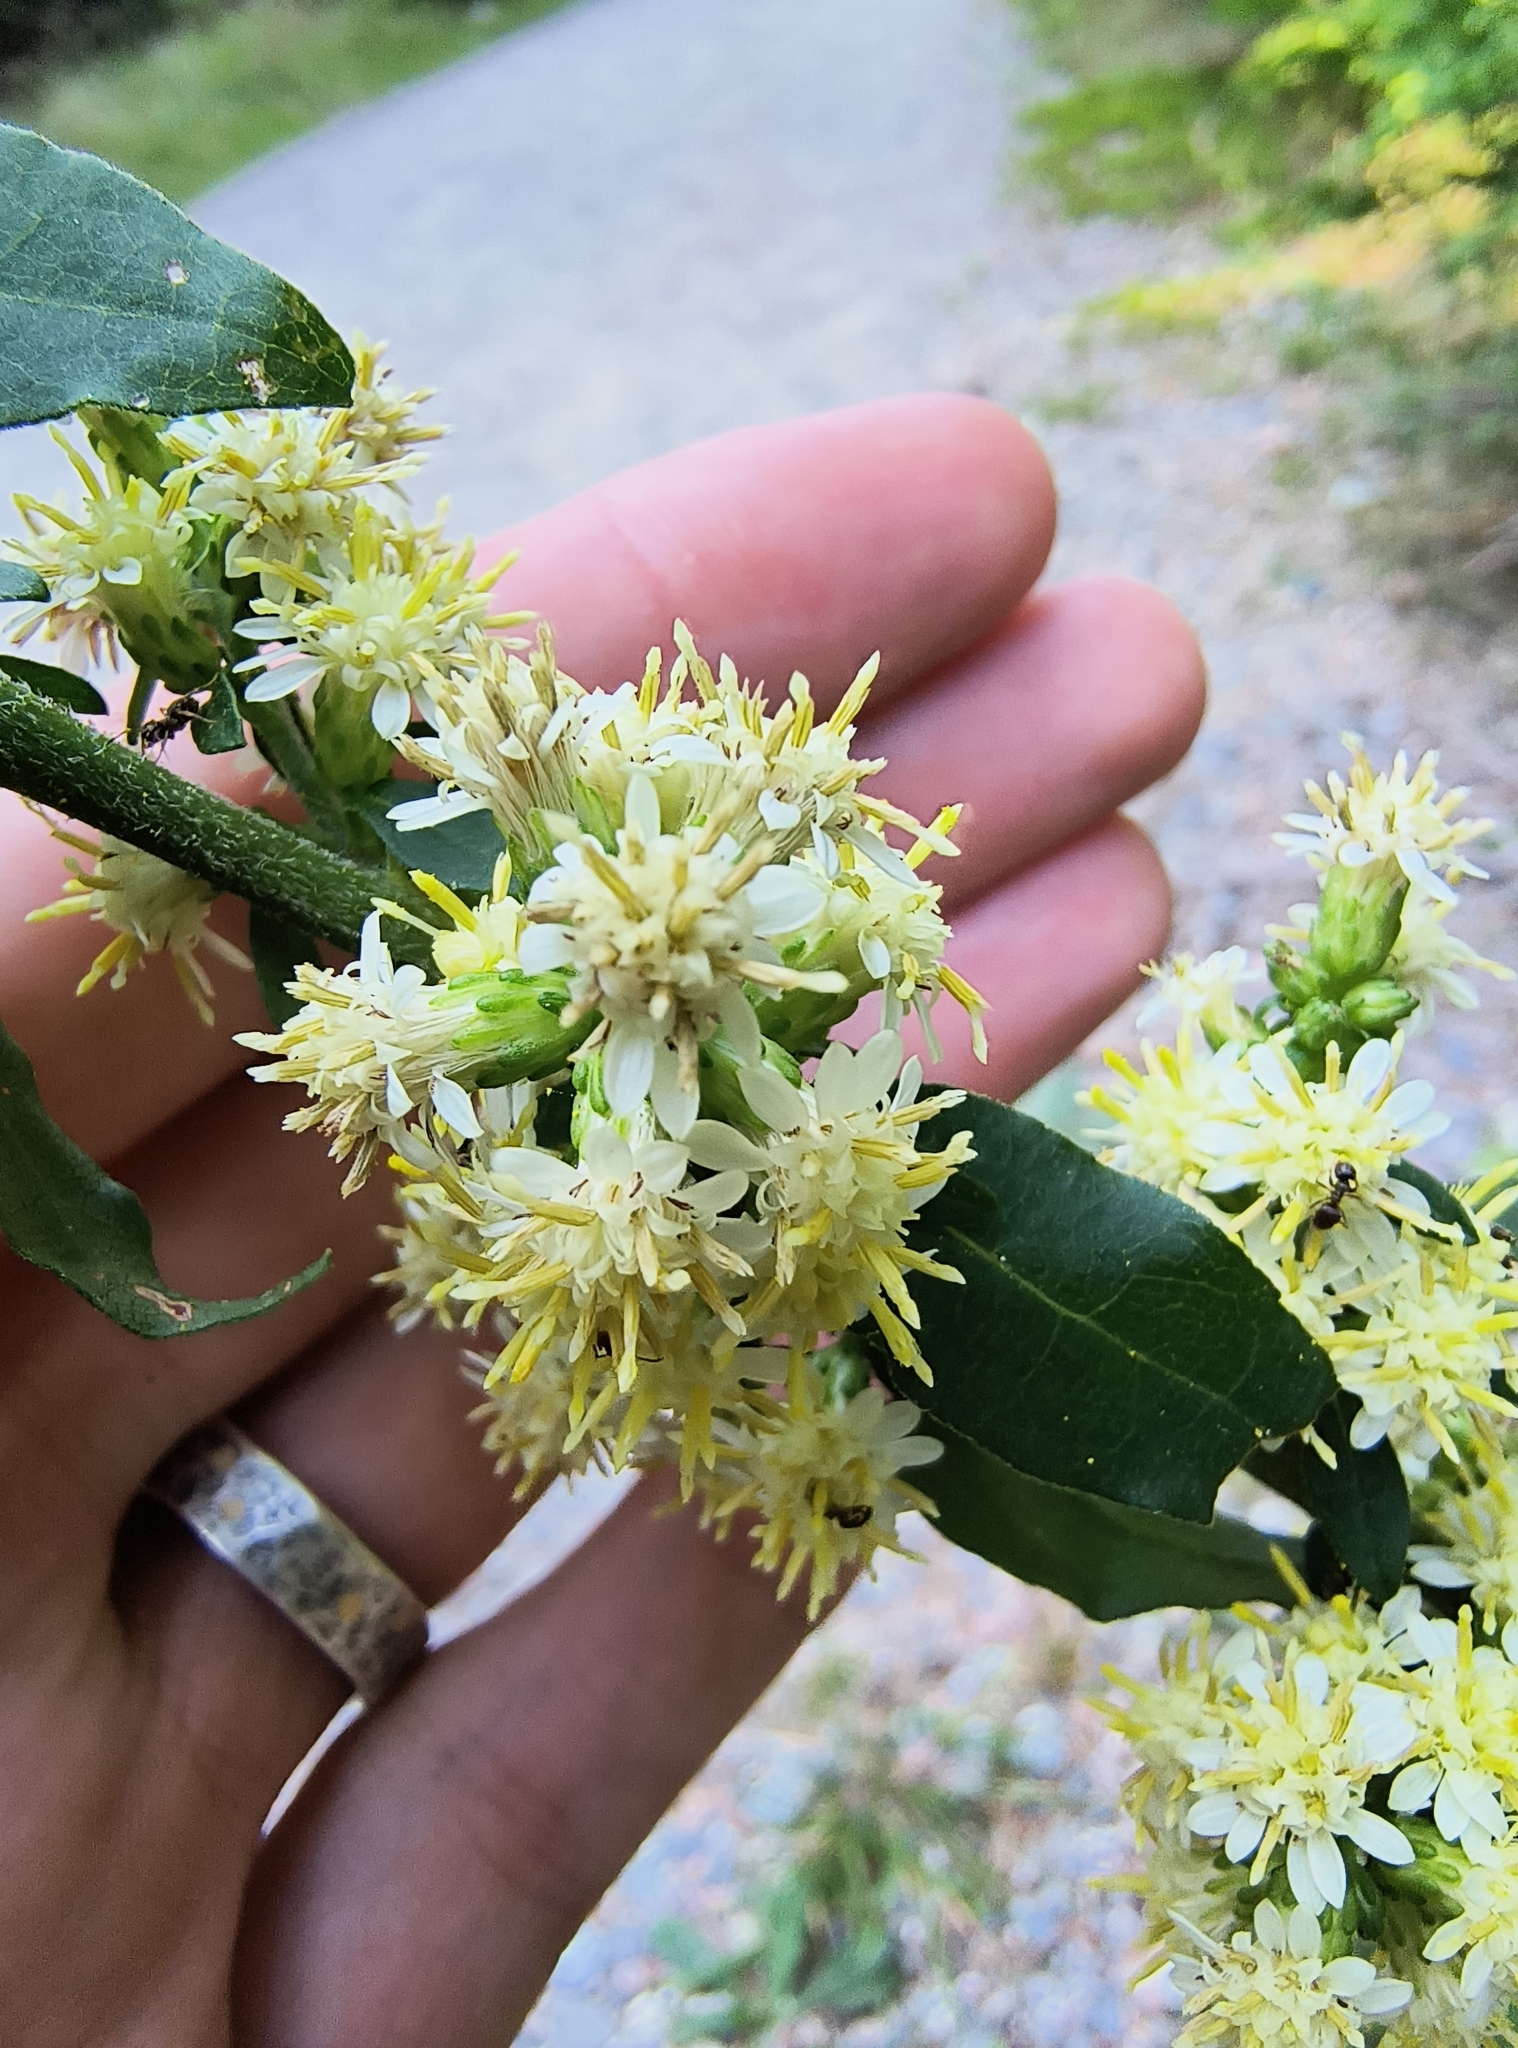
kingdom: Plantae
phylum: Tracheophyta
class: Magnoliopsida
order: Asterales
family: Asteraceae
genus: Solidago
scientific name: Solidago bicolor
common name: Silverrod
